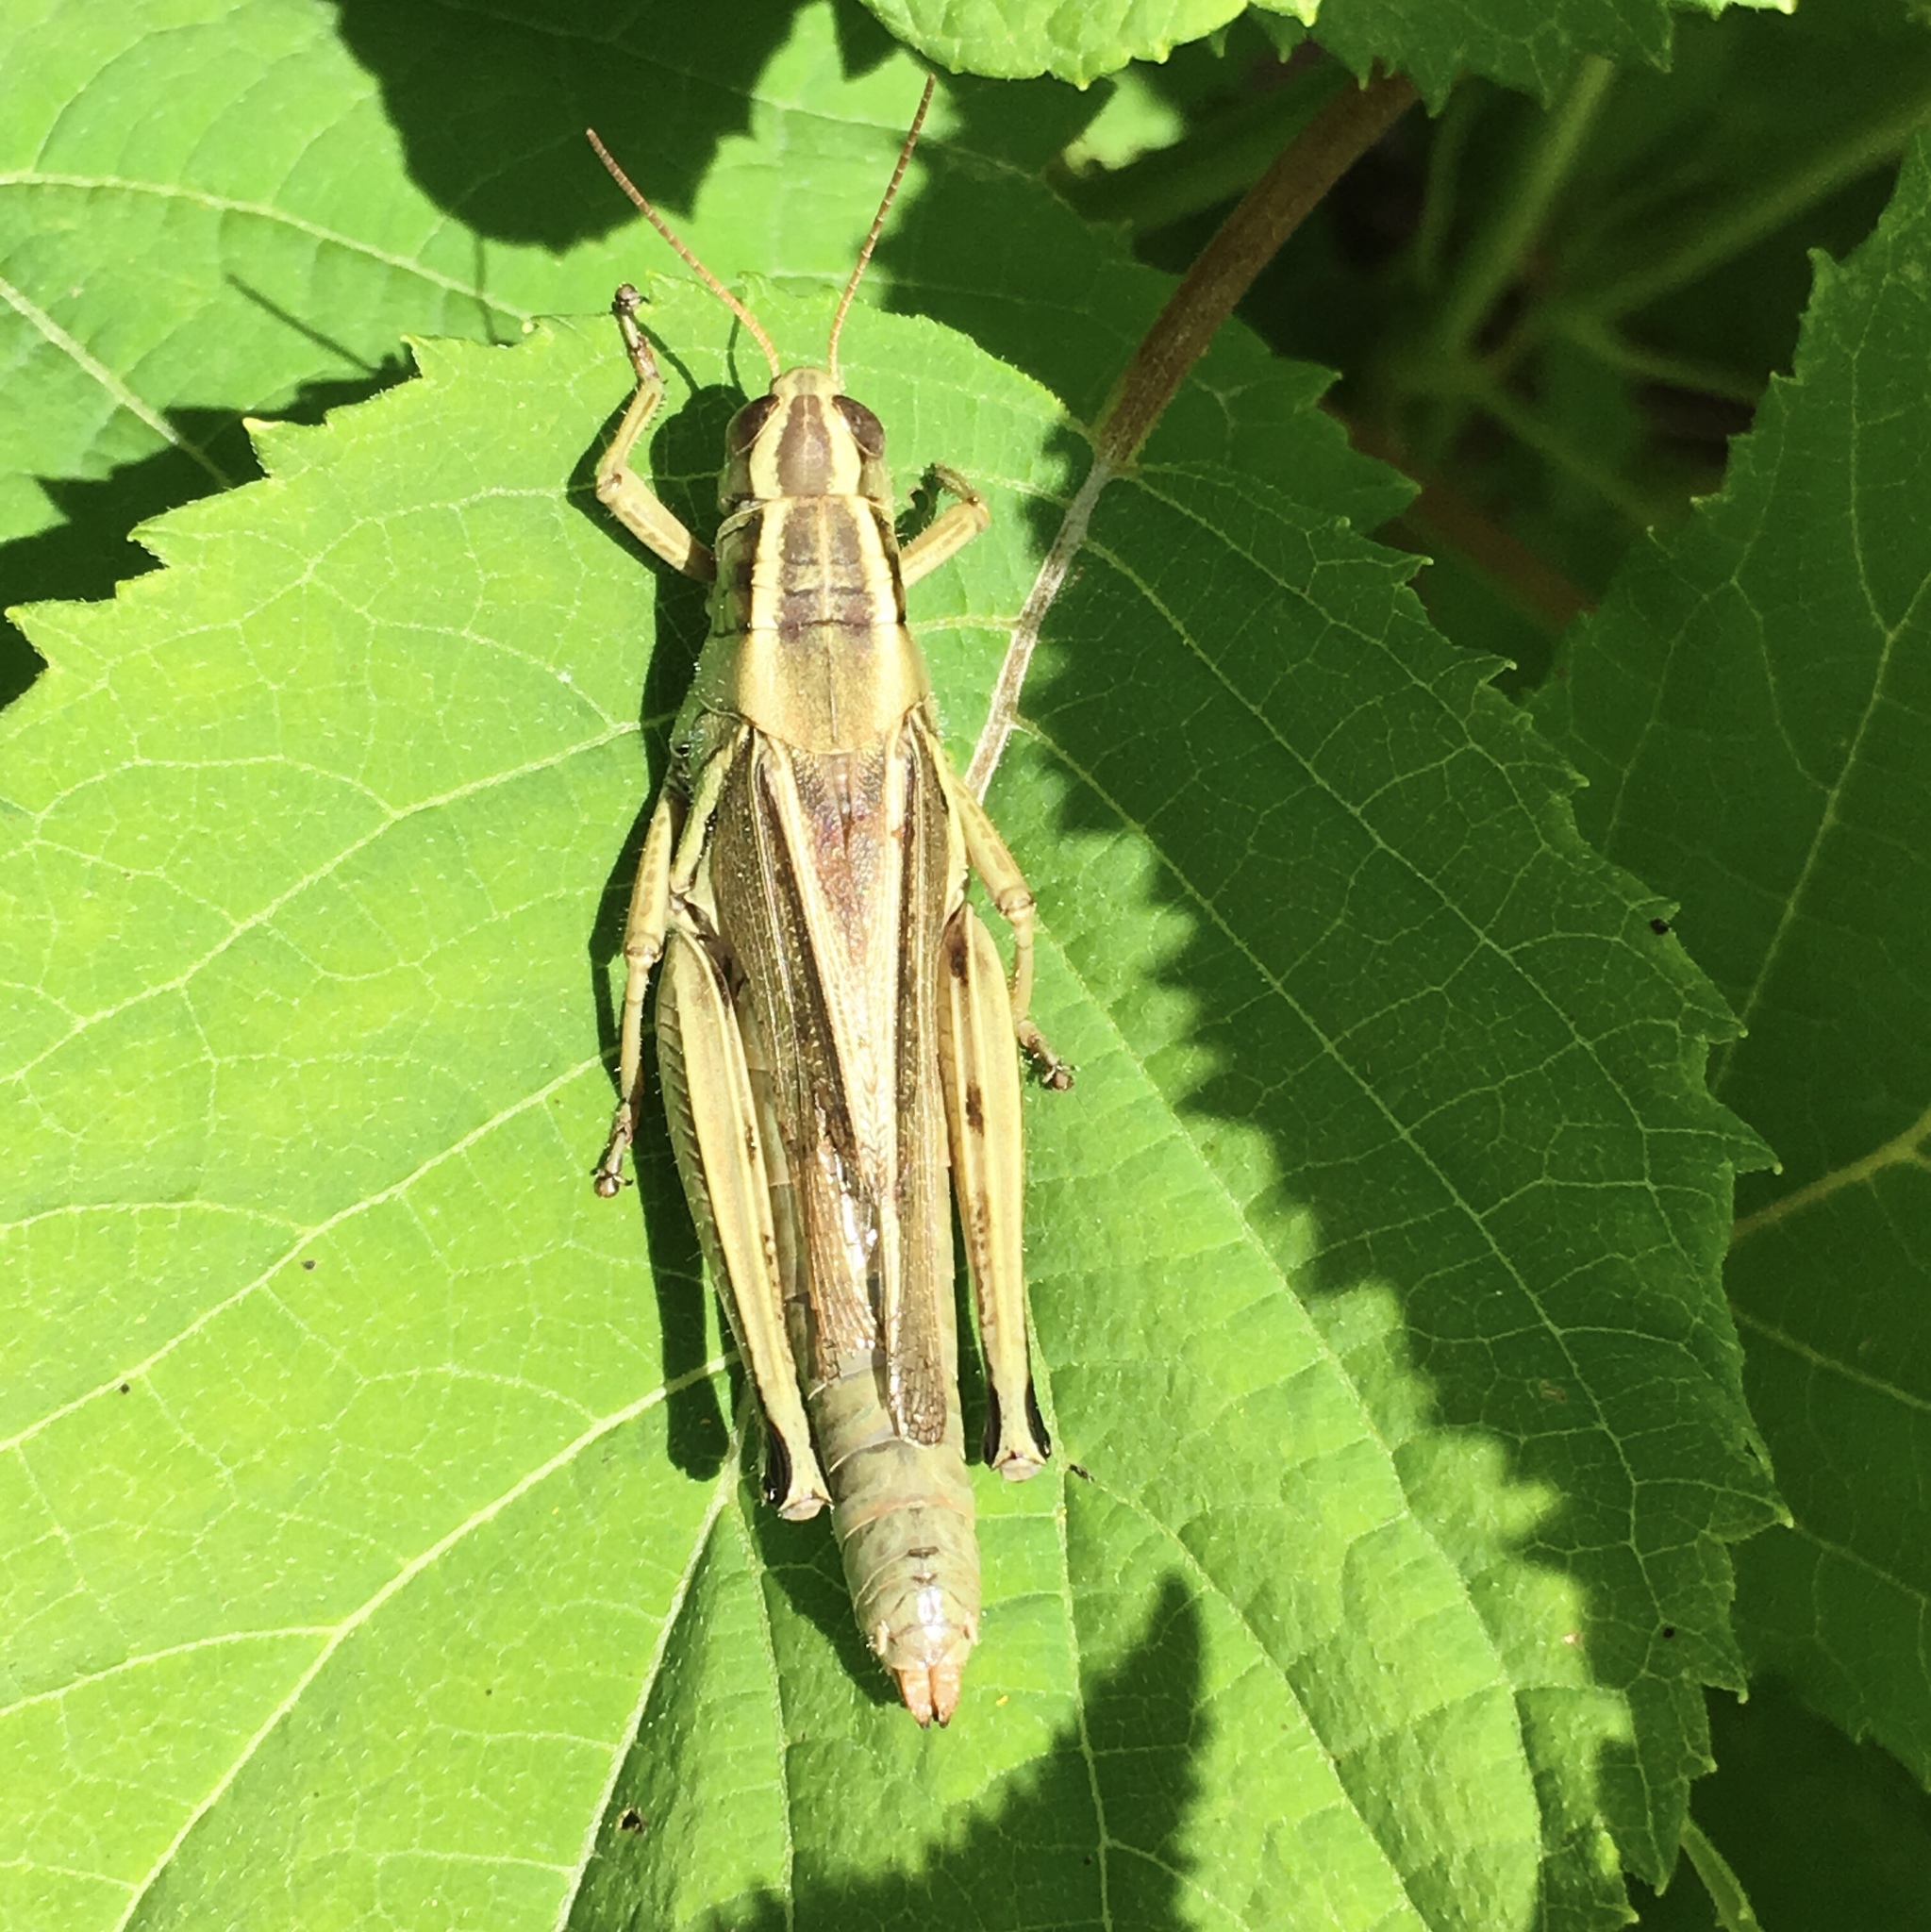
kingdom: Animalia
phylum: Arthropoda
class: Insecta
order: Orthoptera
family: Acrididae
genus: Melanoplus
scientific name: Melanoplus bivittatus
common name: Two-striped grasshopper
